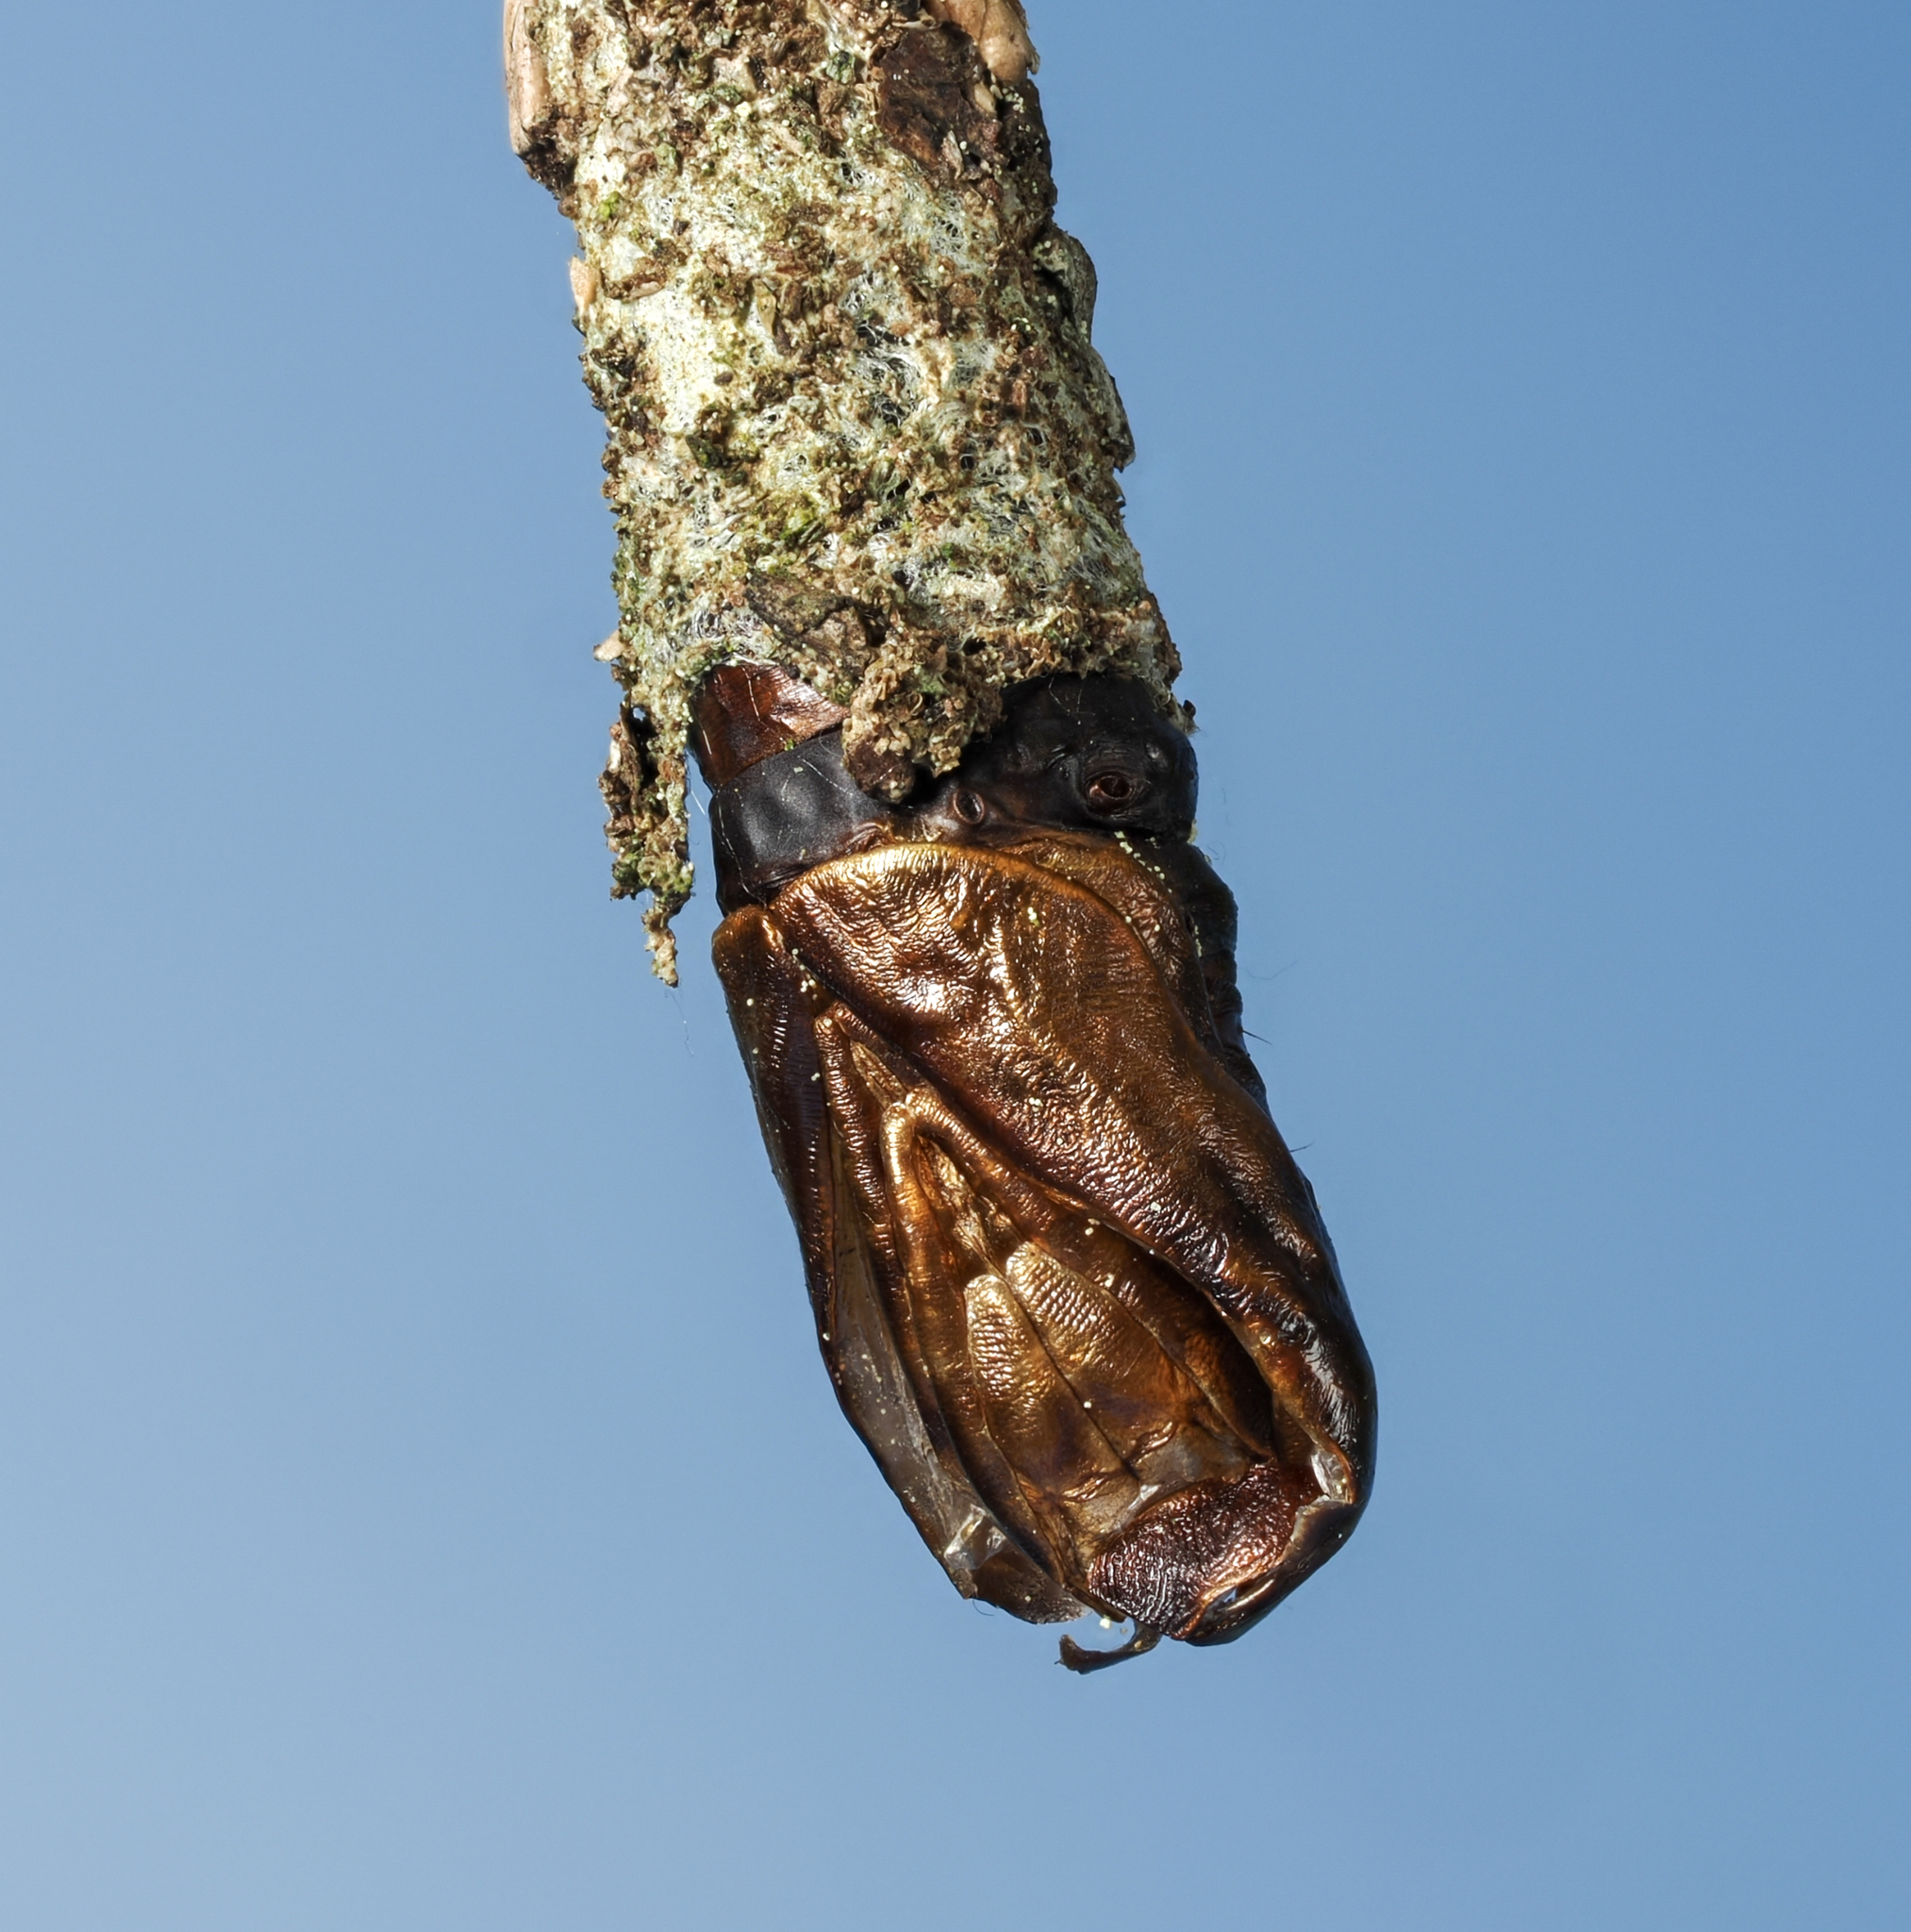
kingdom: Animalia
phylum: Arthropoda
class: Insecta
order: Lepidoptera
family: Psychidae
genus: Thyridopteryx
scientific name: Thyridopteryx ephemeraeformis
